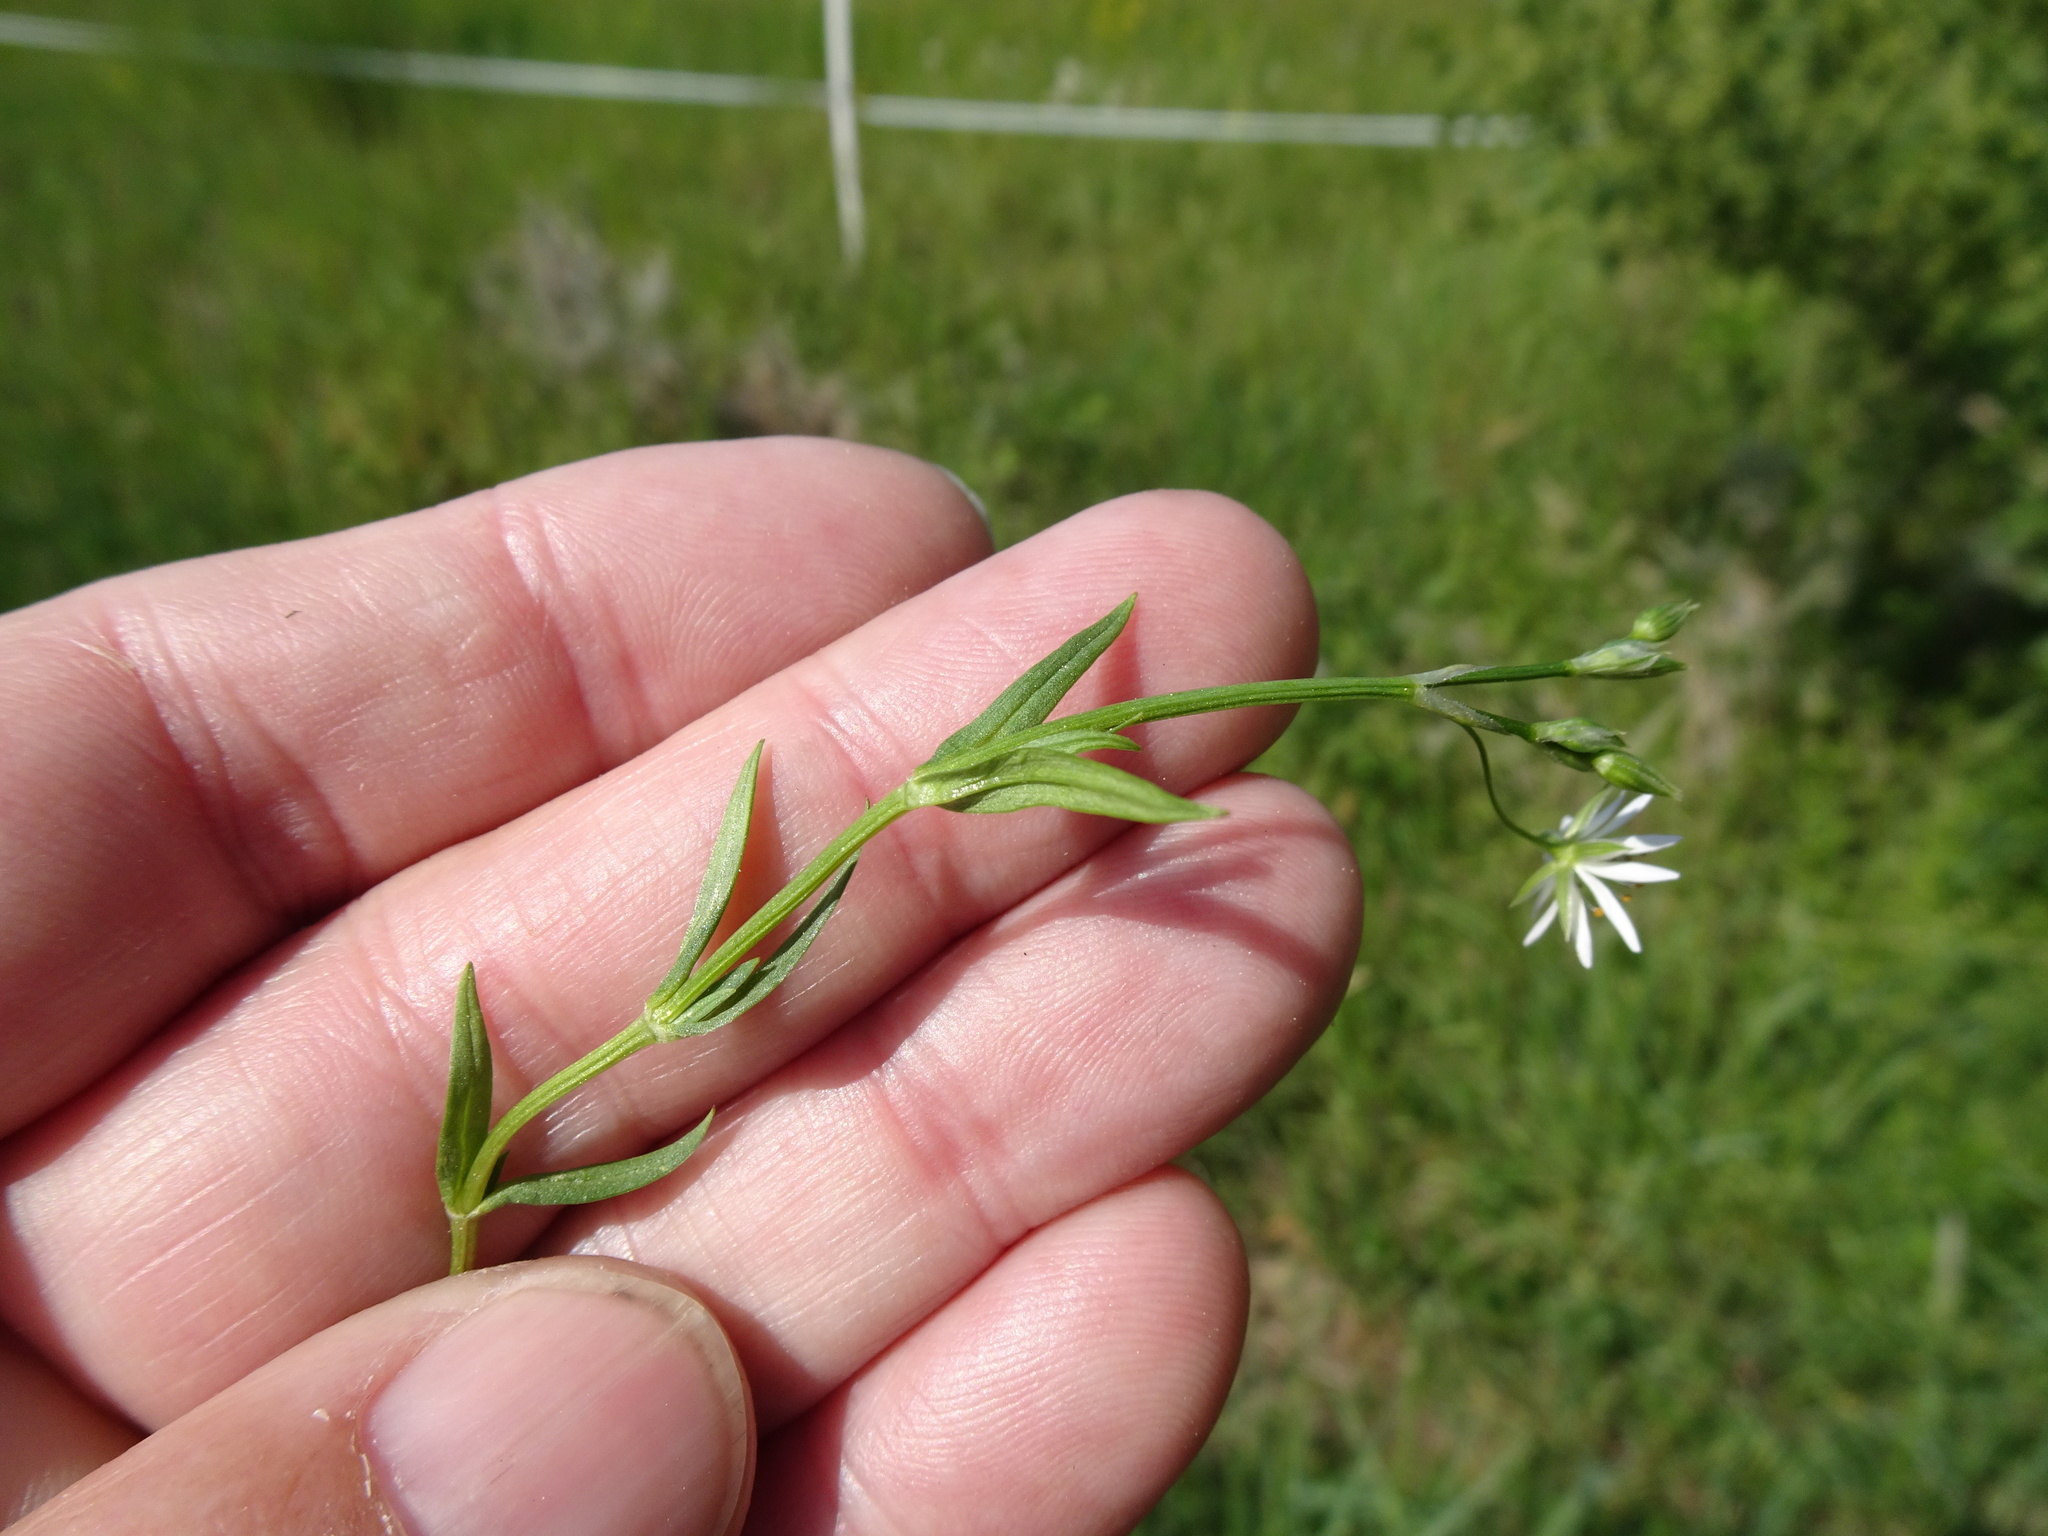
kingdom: Plantae
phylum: Tracheophyta
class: Magnoliopsida
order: Caryophyllales
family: Caryophyllaceae
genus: Stellaria
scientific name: Stellaria graminea
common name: Grass-like starwort
